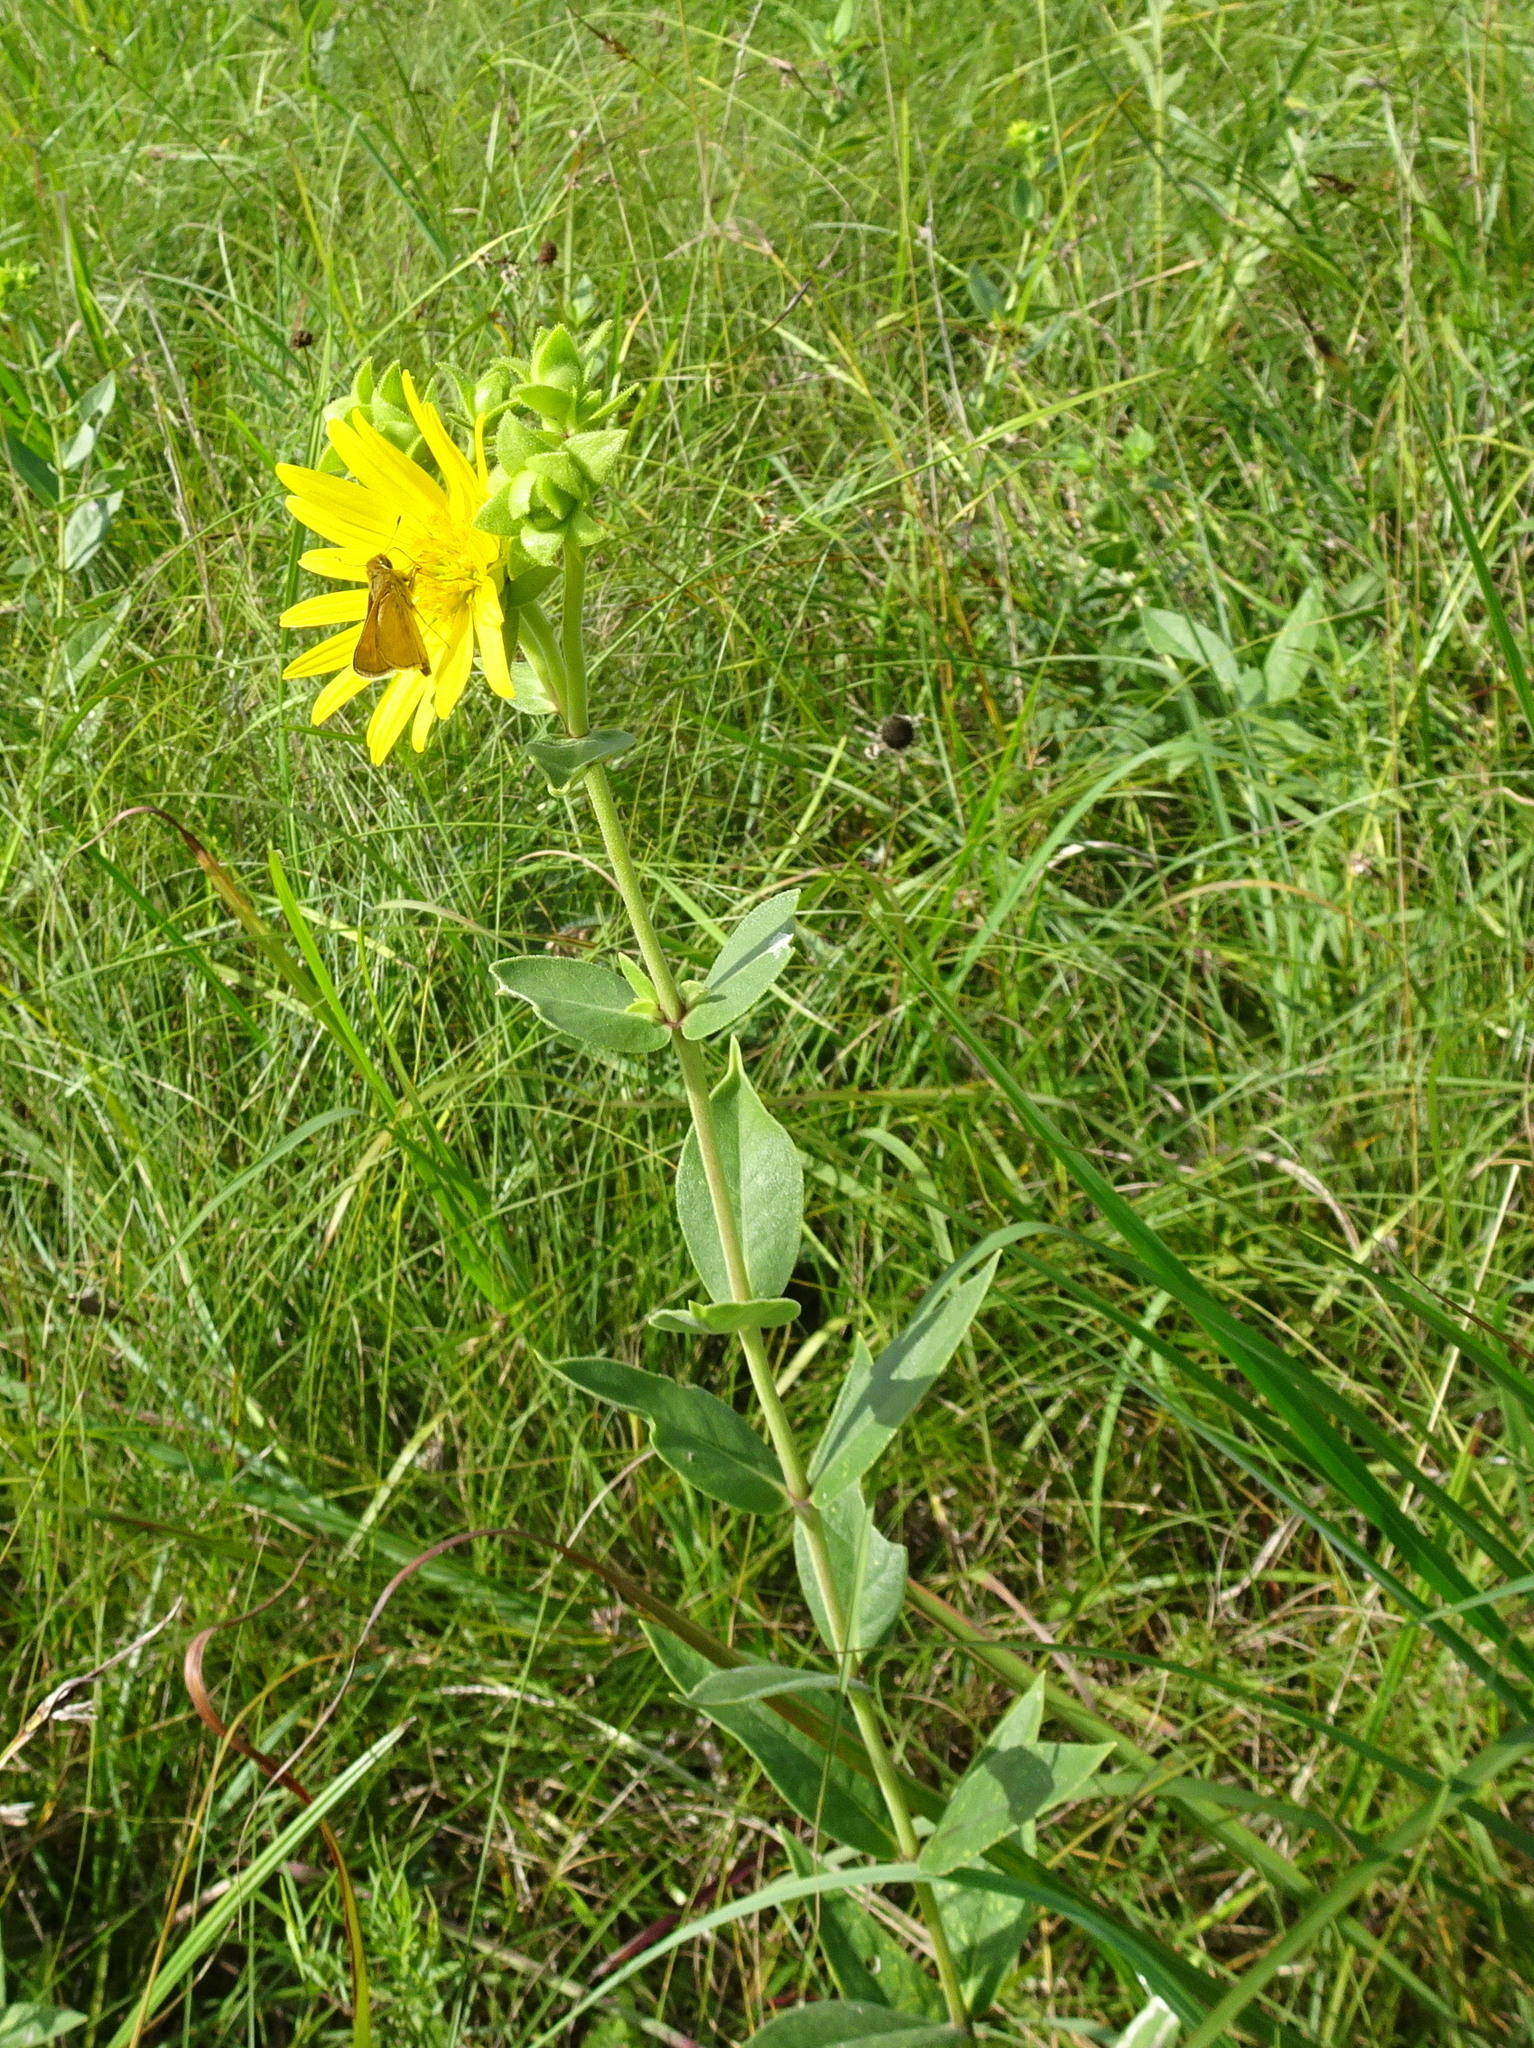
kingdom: Plantae
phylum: Tracheophyta
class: Magnoliopsida
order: Asterales
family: Asteraceae
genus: Silphium
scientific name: Silphium integrifolium
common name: Whole-leaf rosinweed
